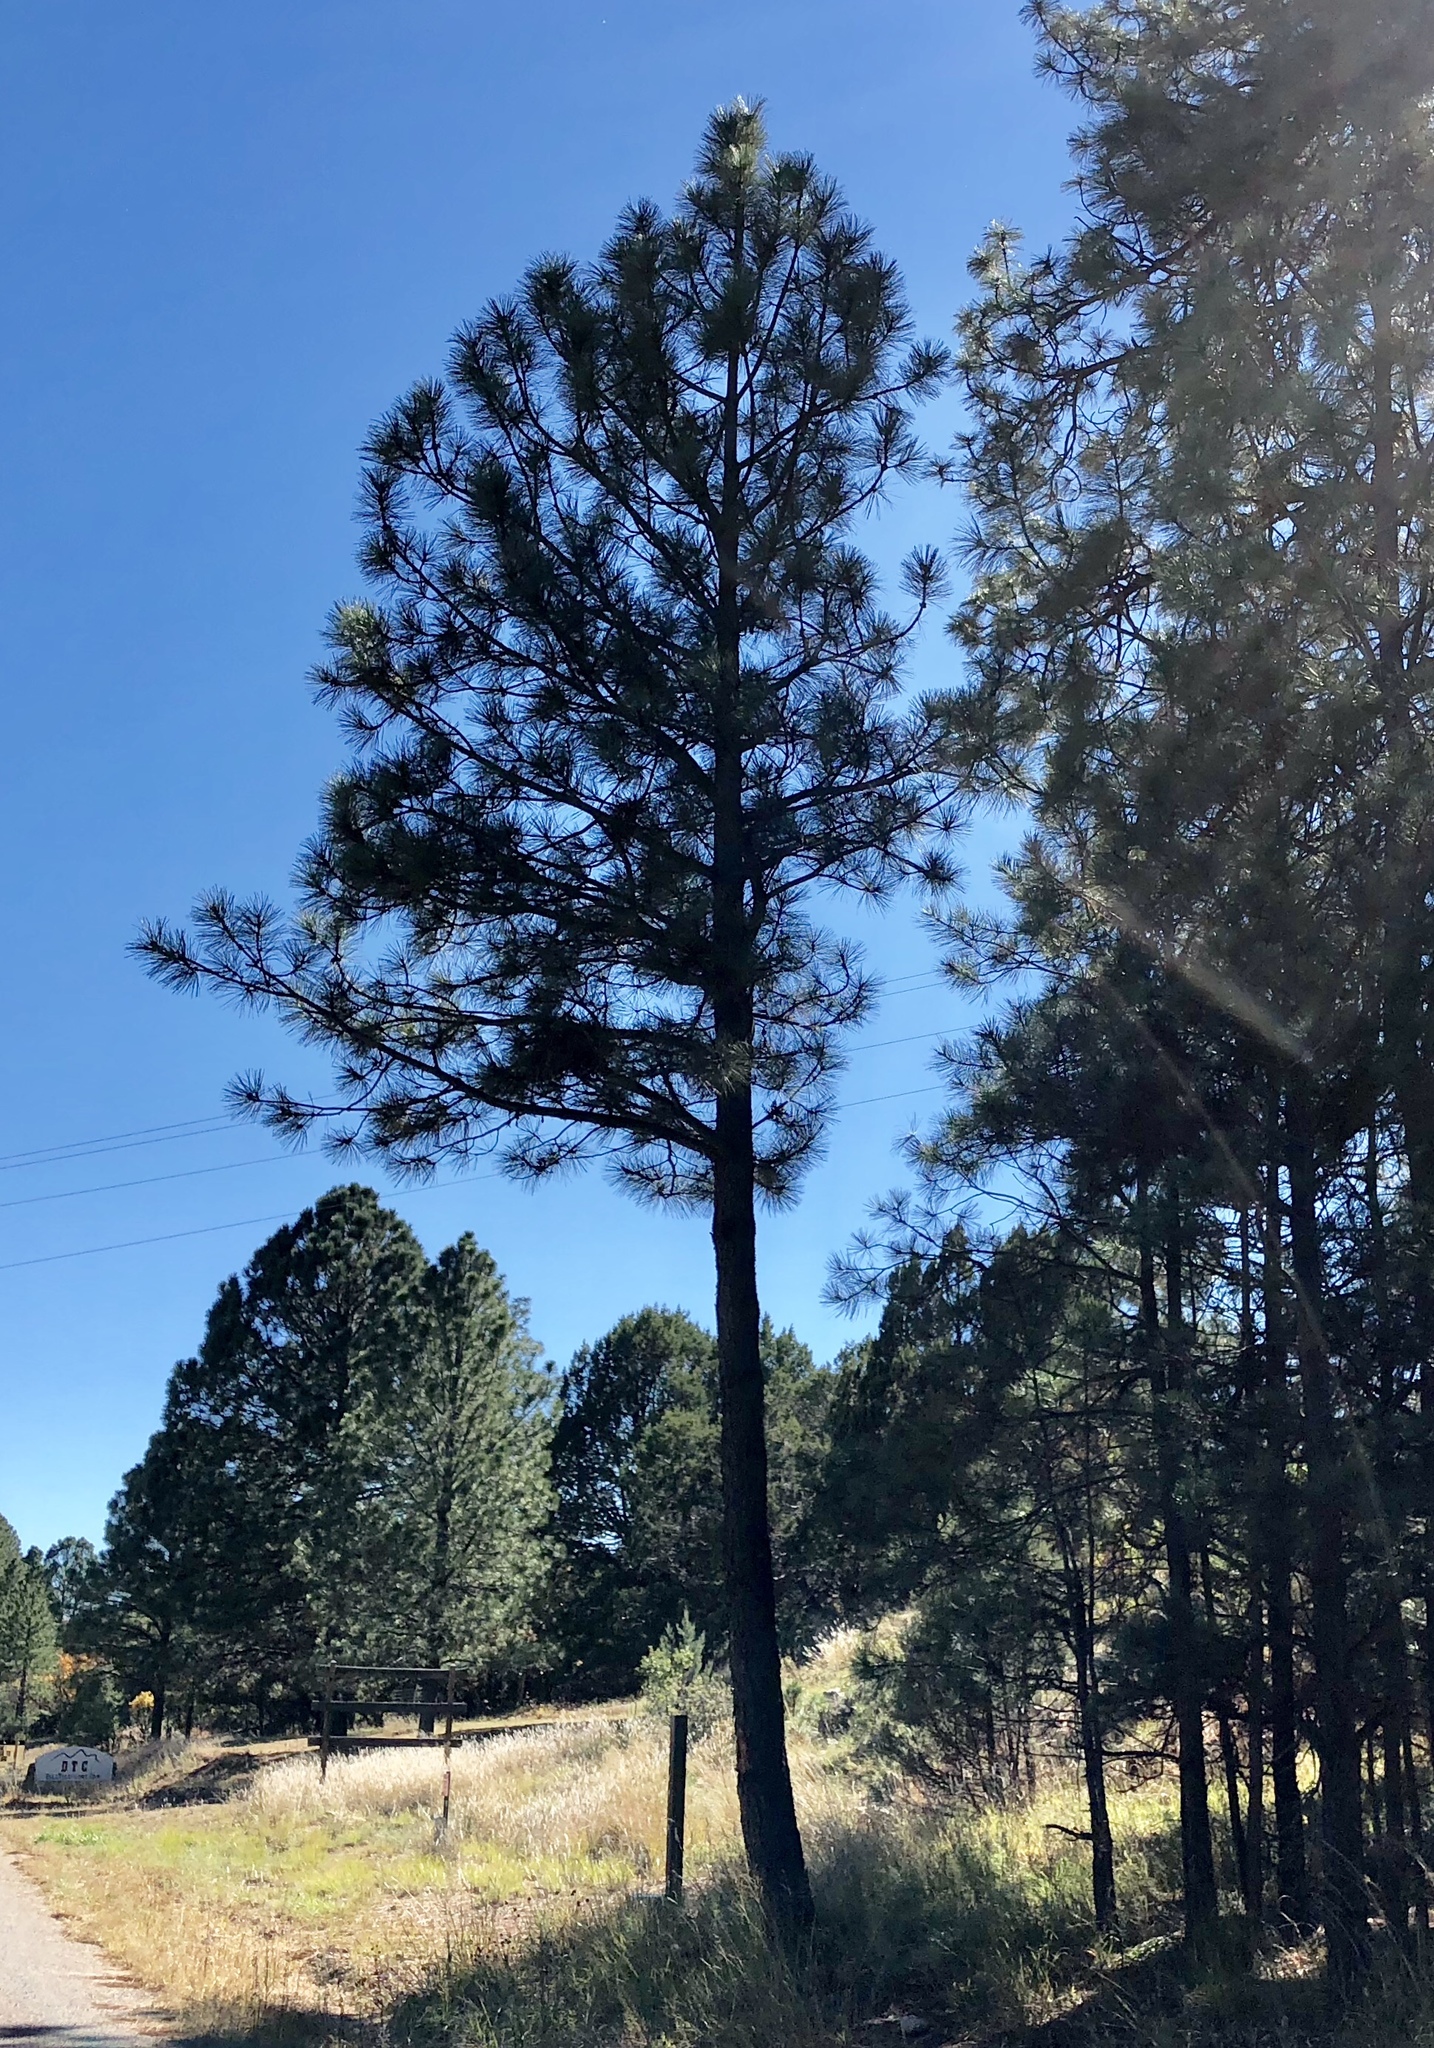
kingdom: Plantae
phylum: Tracheophyta
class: Pinopsida
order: Pinales
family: Pinaceae
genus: Pinus
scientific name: Pinus ponderosa
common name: Western yellow-pine
